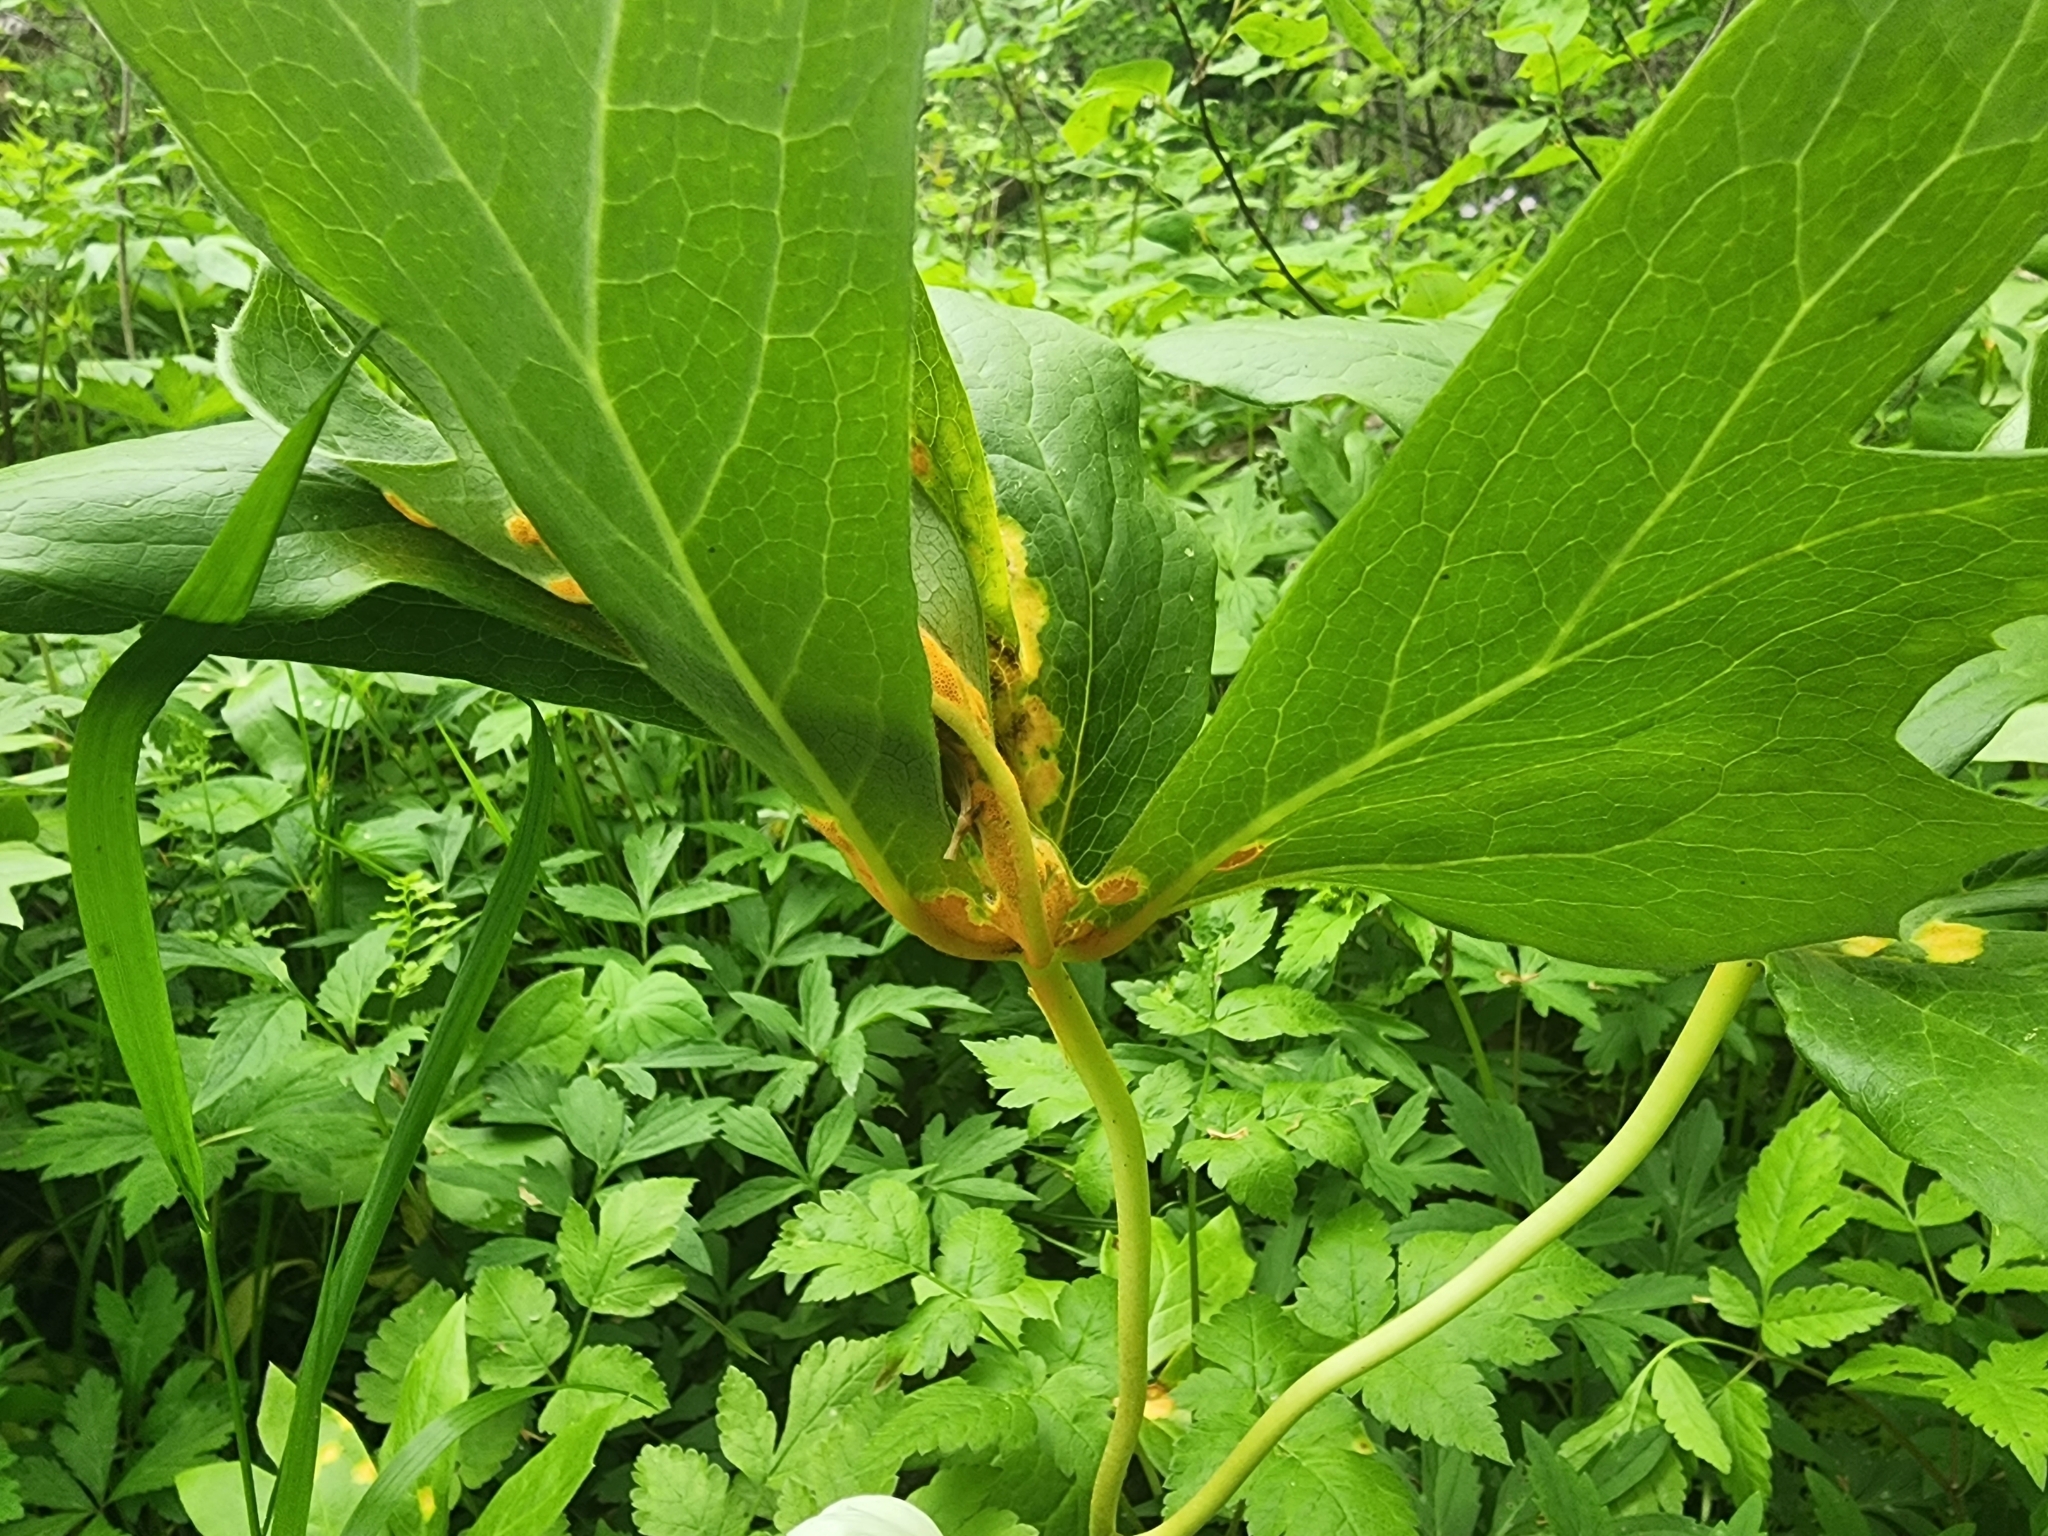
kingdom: Plantae
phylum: Tracheophyta
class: Magnoliopsida
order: Ranunculales
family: Berberidaceae
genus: Podophyllum
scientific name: Podophyllum peltatum
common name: Wild mandrake
